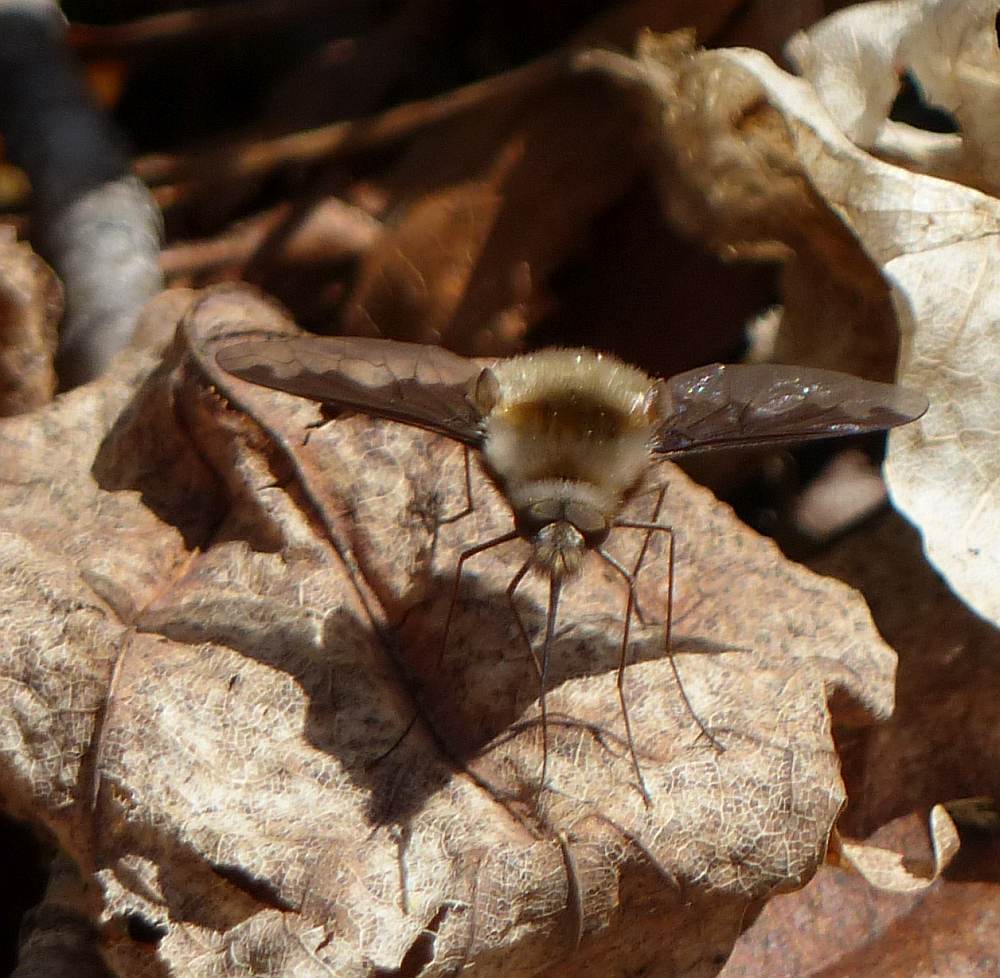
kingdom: Animalia
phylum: Arthropoda
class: Insecta
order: Diptera
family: Bombyliidae
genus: Bombylius
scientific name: Bombylius major
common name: Bee fly
